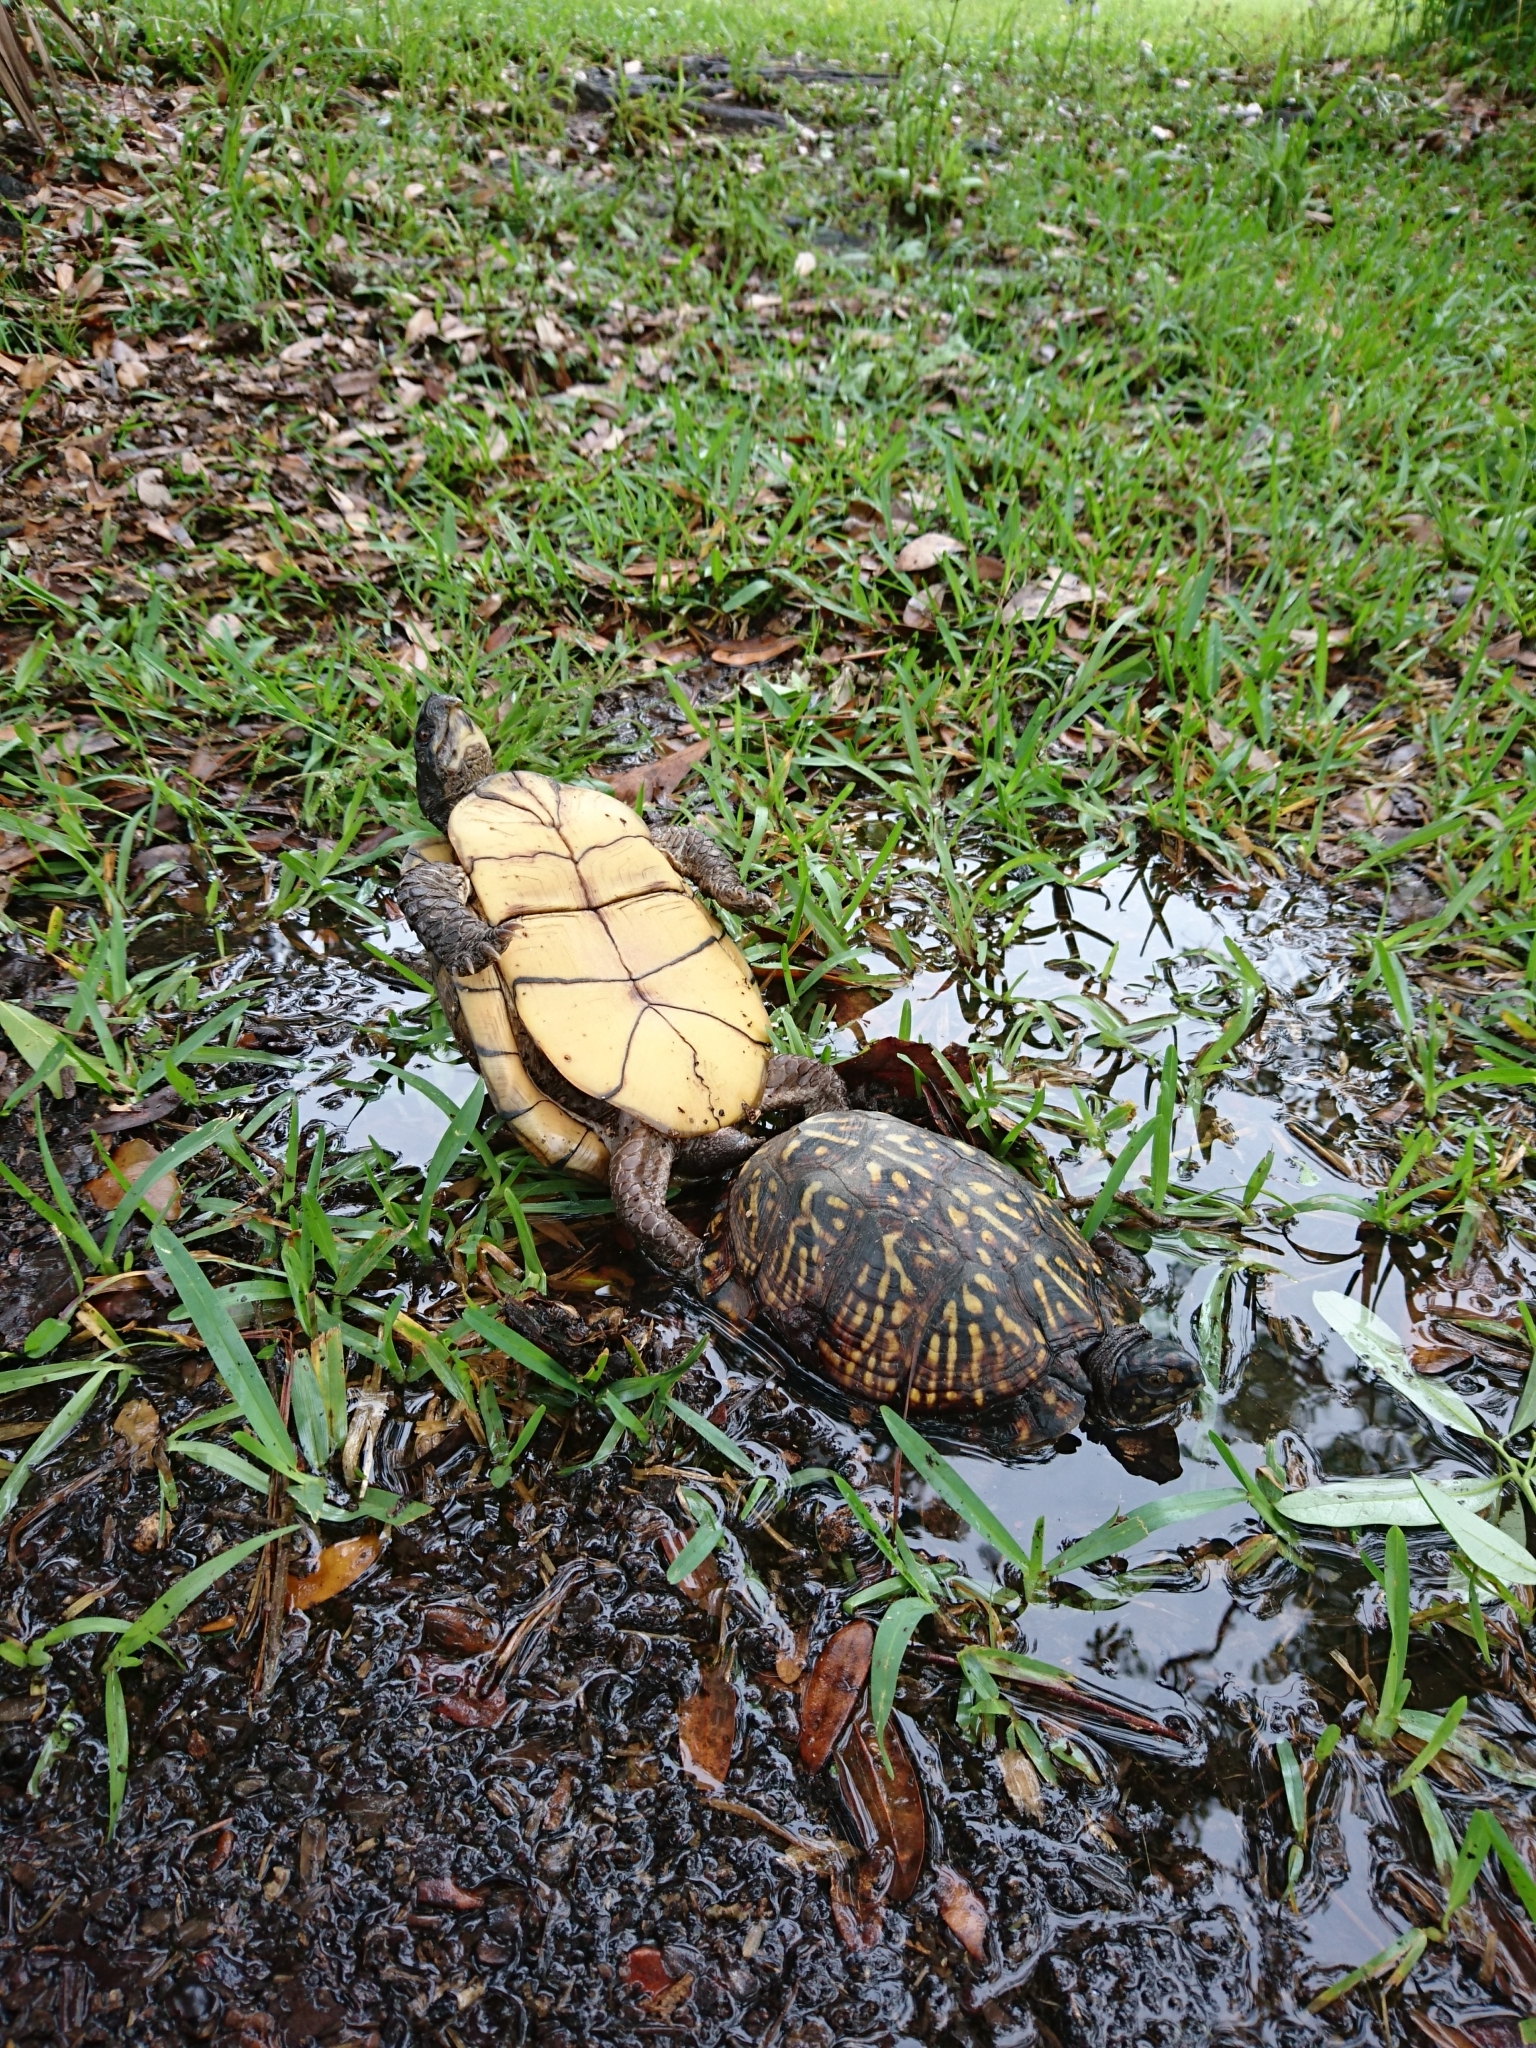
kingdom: Animalia
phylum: Chordata
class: Testudines
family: Emydidae
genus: Terrapene
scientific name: Terrapene carolina
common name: Common box turtle
